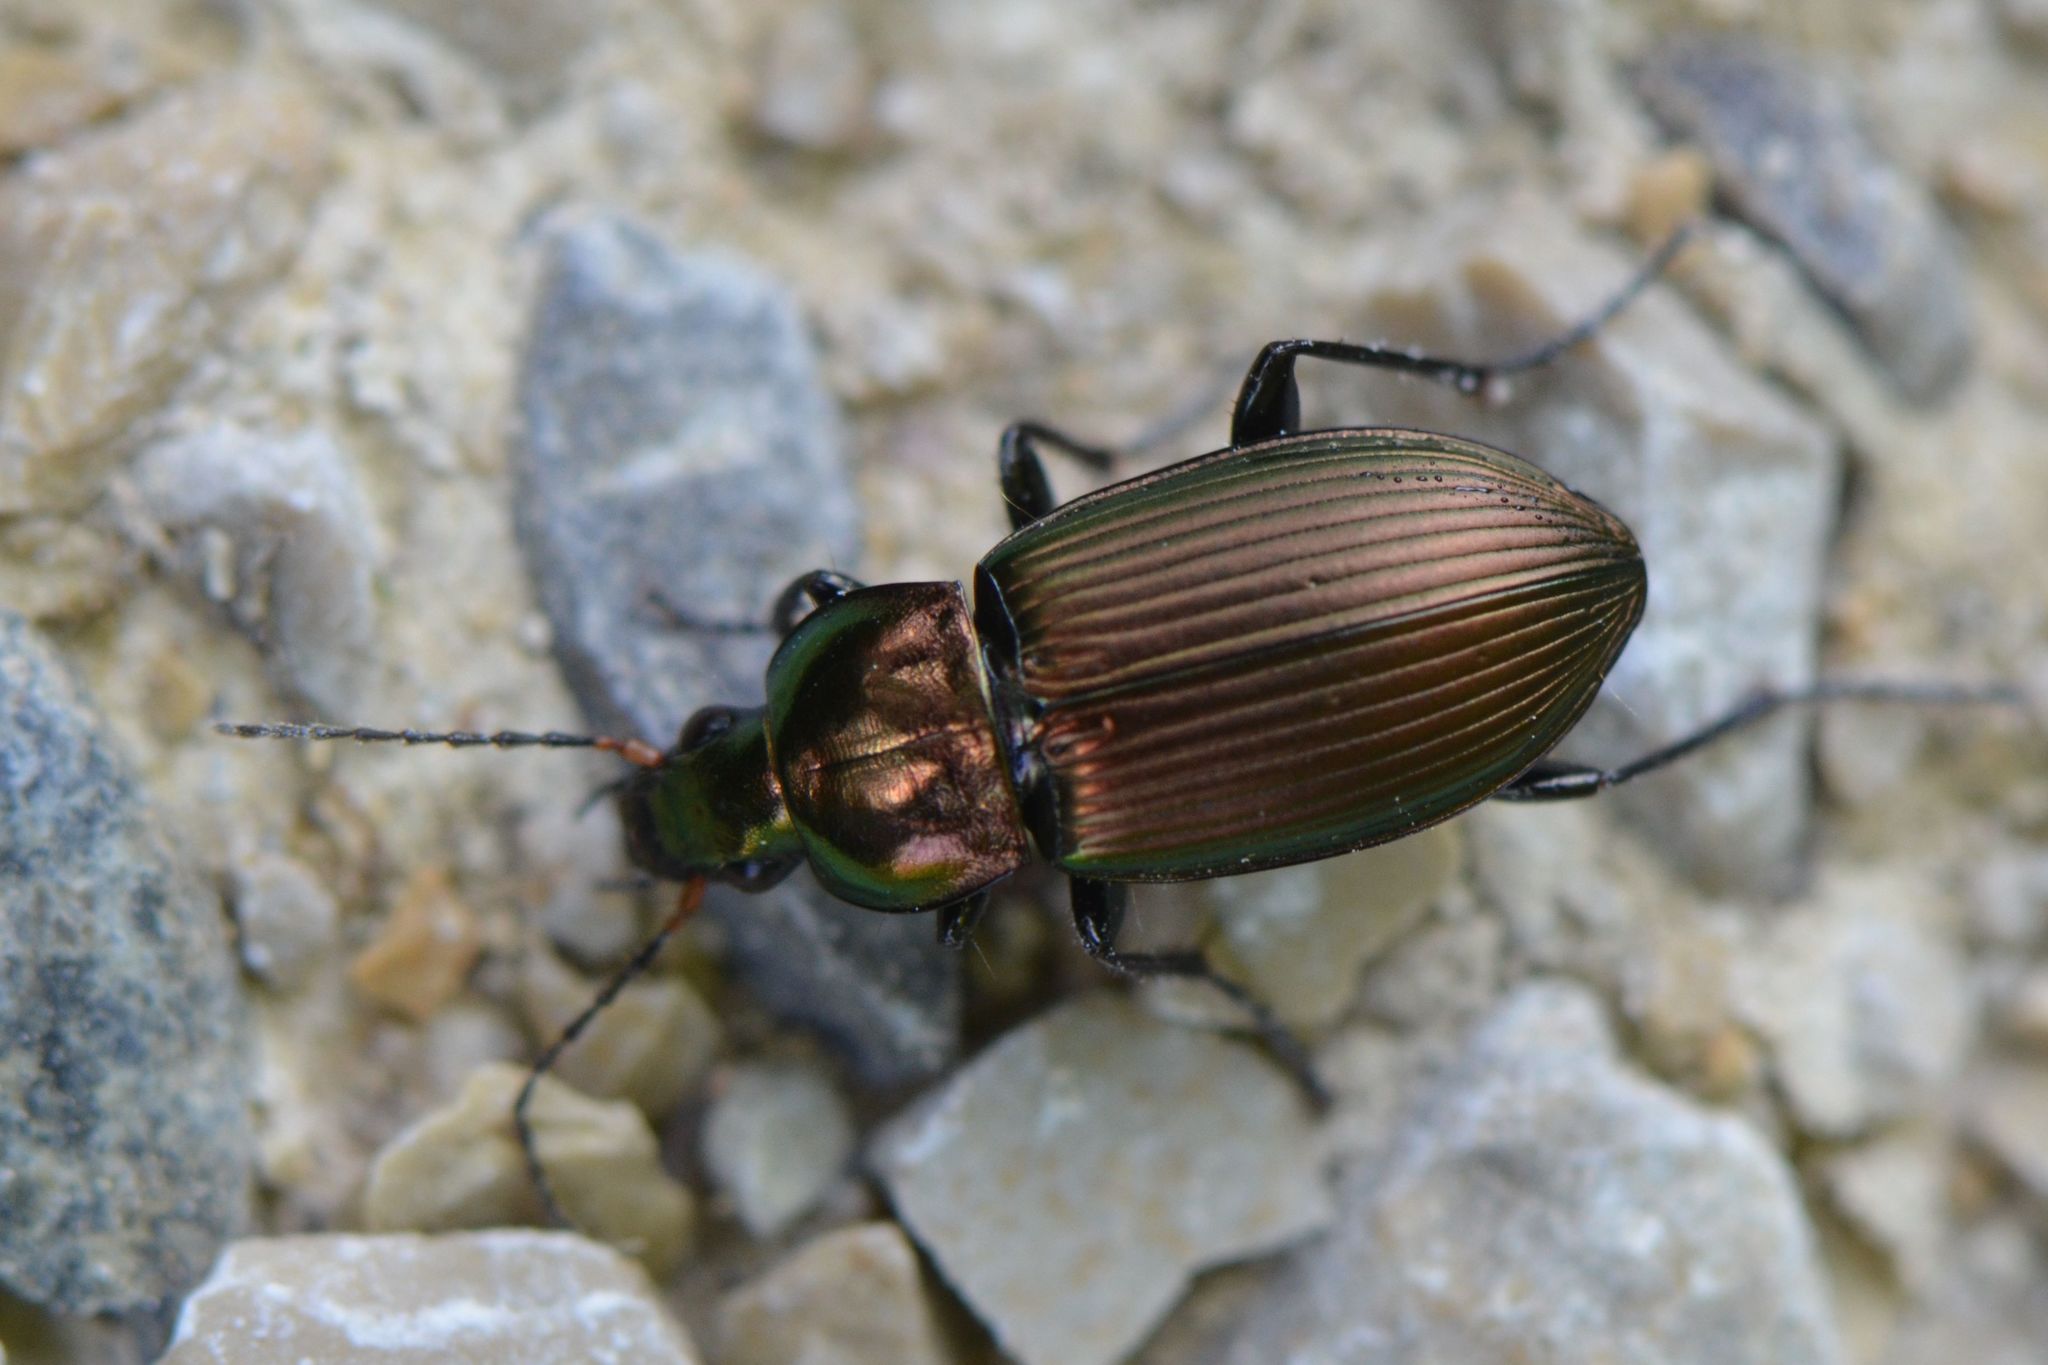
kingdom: Animalia
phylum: Arthropoda
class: Insecta
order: Coleoptera
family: Carabidae
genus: Poecilus
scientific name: Poecilus cupreus
